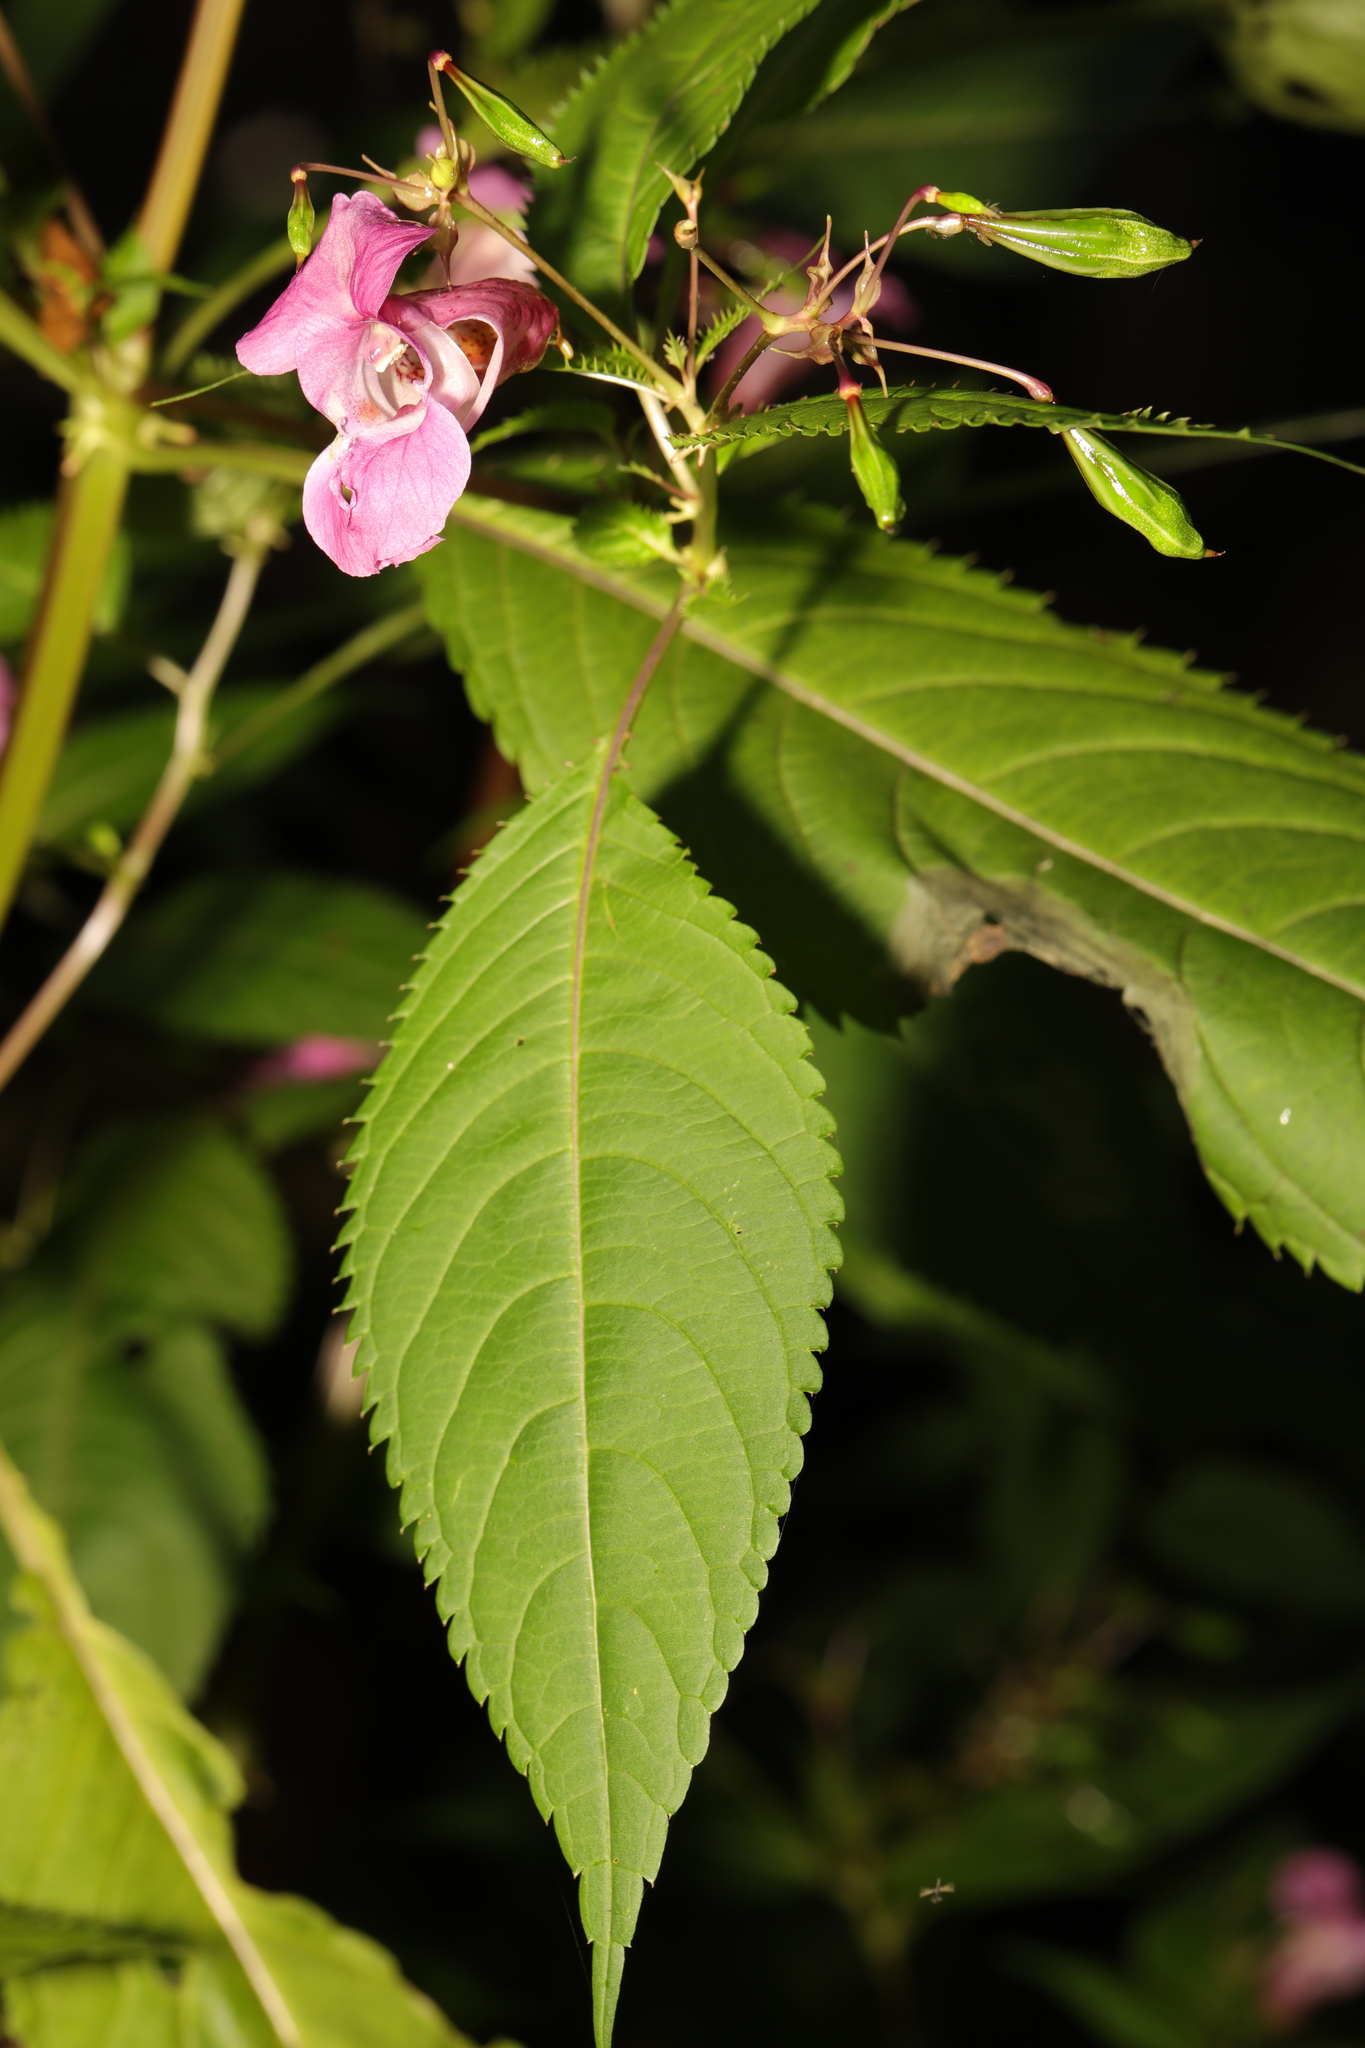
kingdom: Plantae
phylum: Tracheophyta
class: Magnoliopsida
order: Ericales
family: Balsaminaceae
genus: Impatiens
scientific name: Impatiens glandulifera
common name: Himalayan balsam
